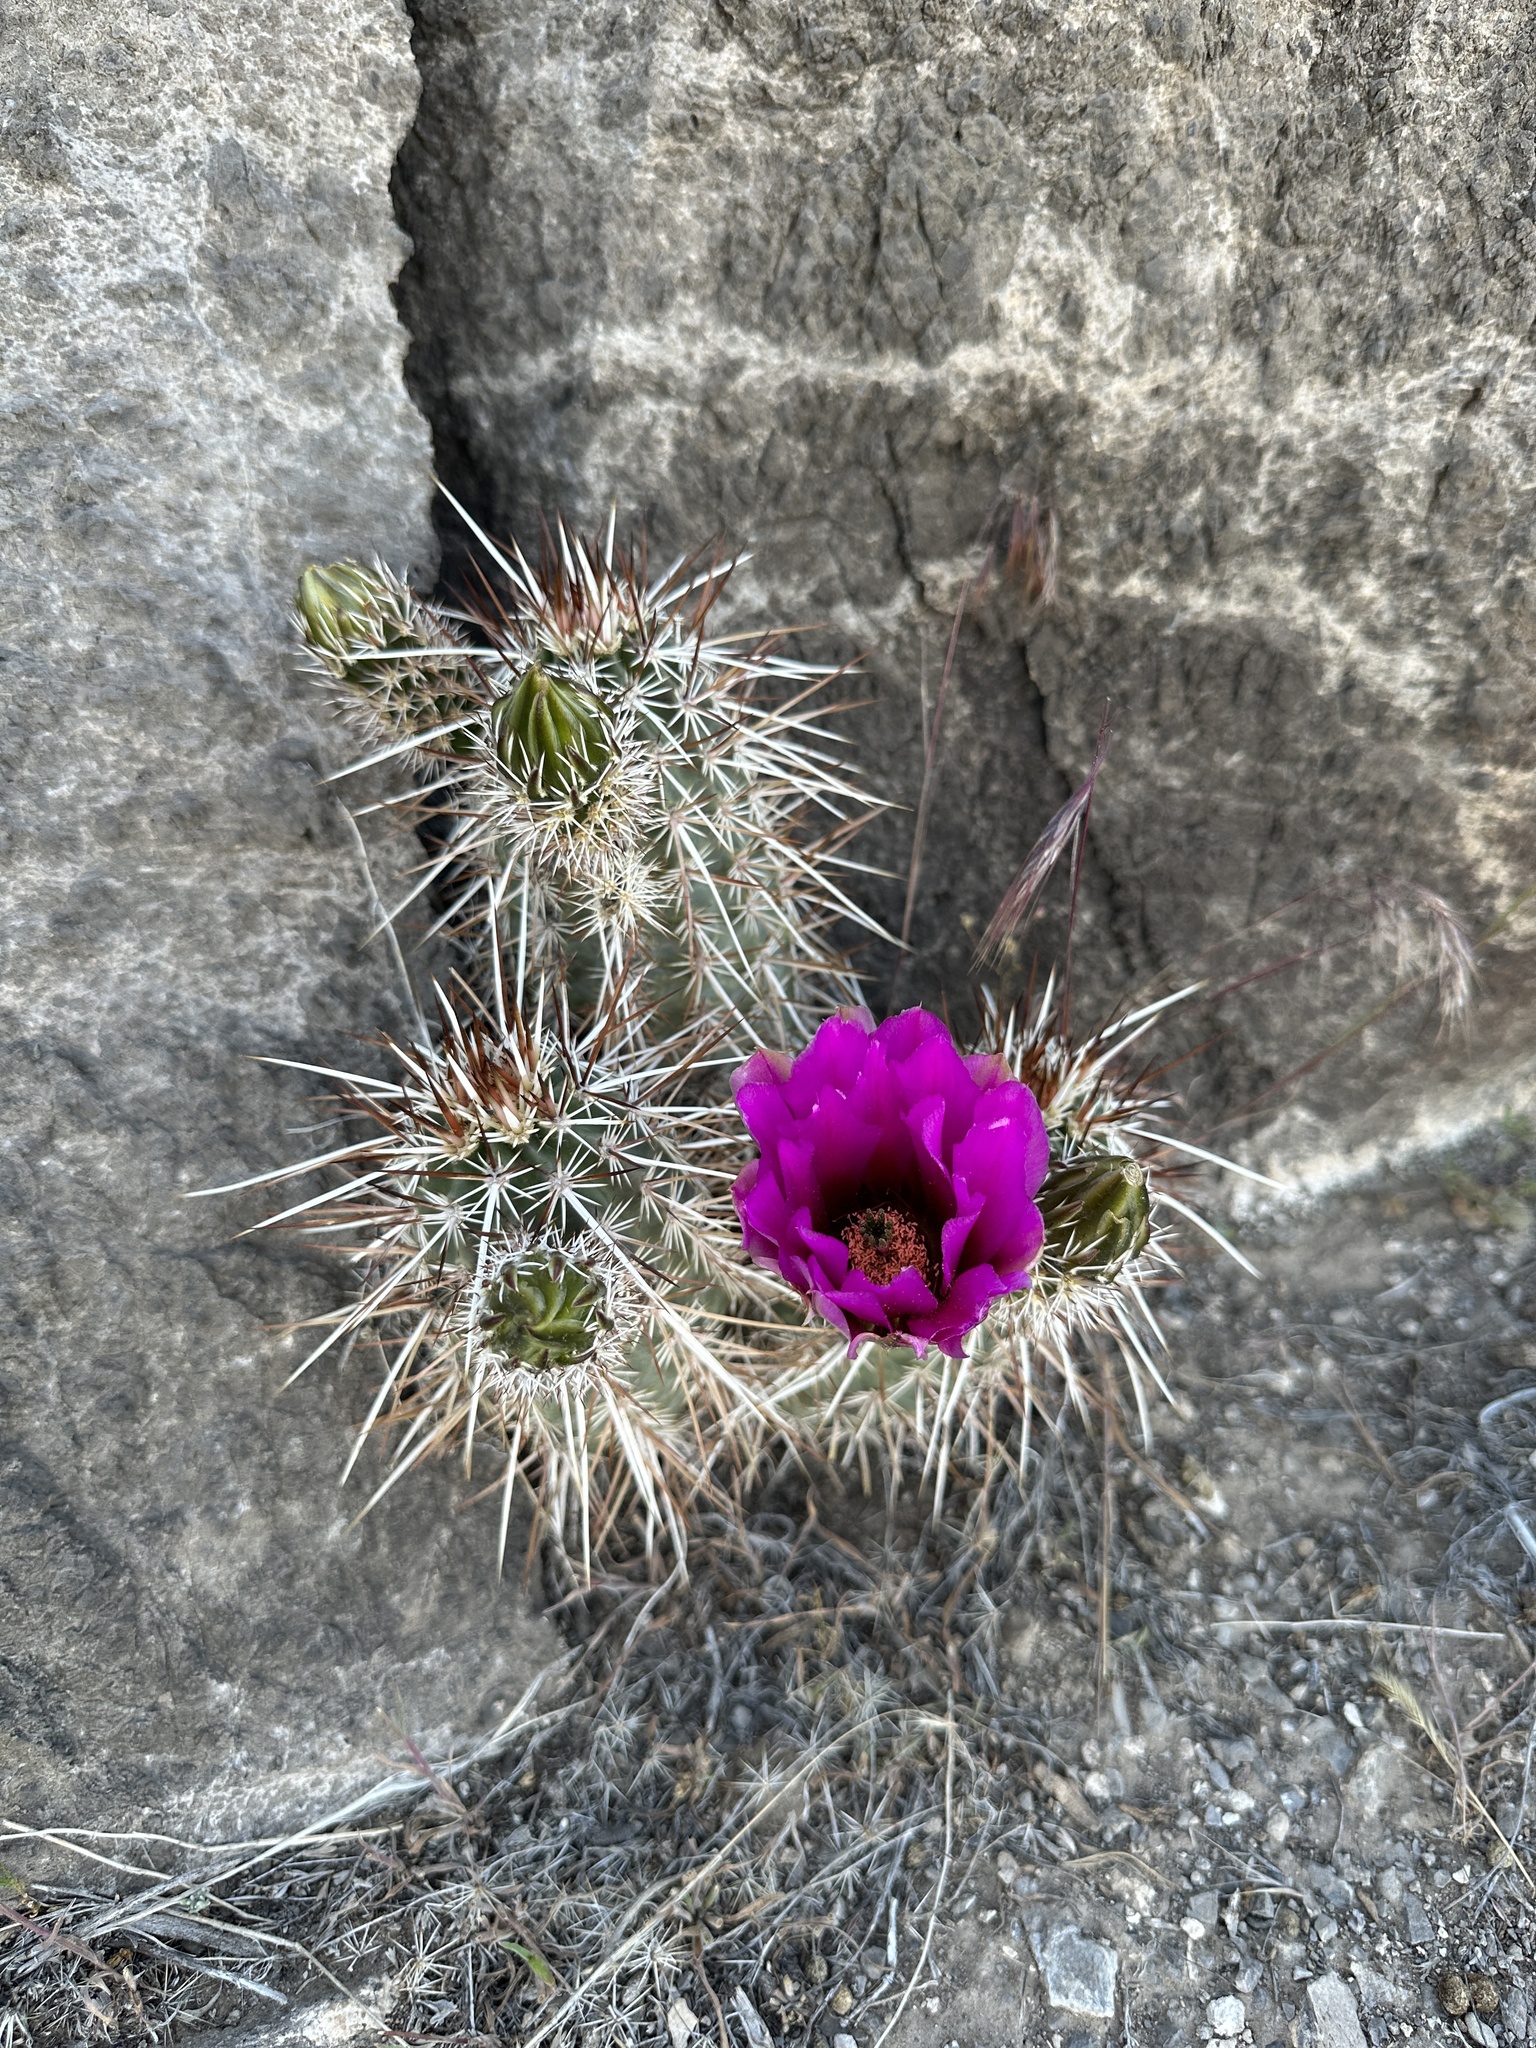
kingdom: Plantae
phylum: Tracheophyta
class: Magnoliopsida
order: Caryophyllales
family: Cactaceae
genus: Echinocereus
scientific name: Echinocereus engelmannii
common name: Engelmann's hedgehog cactus
